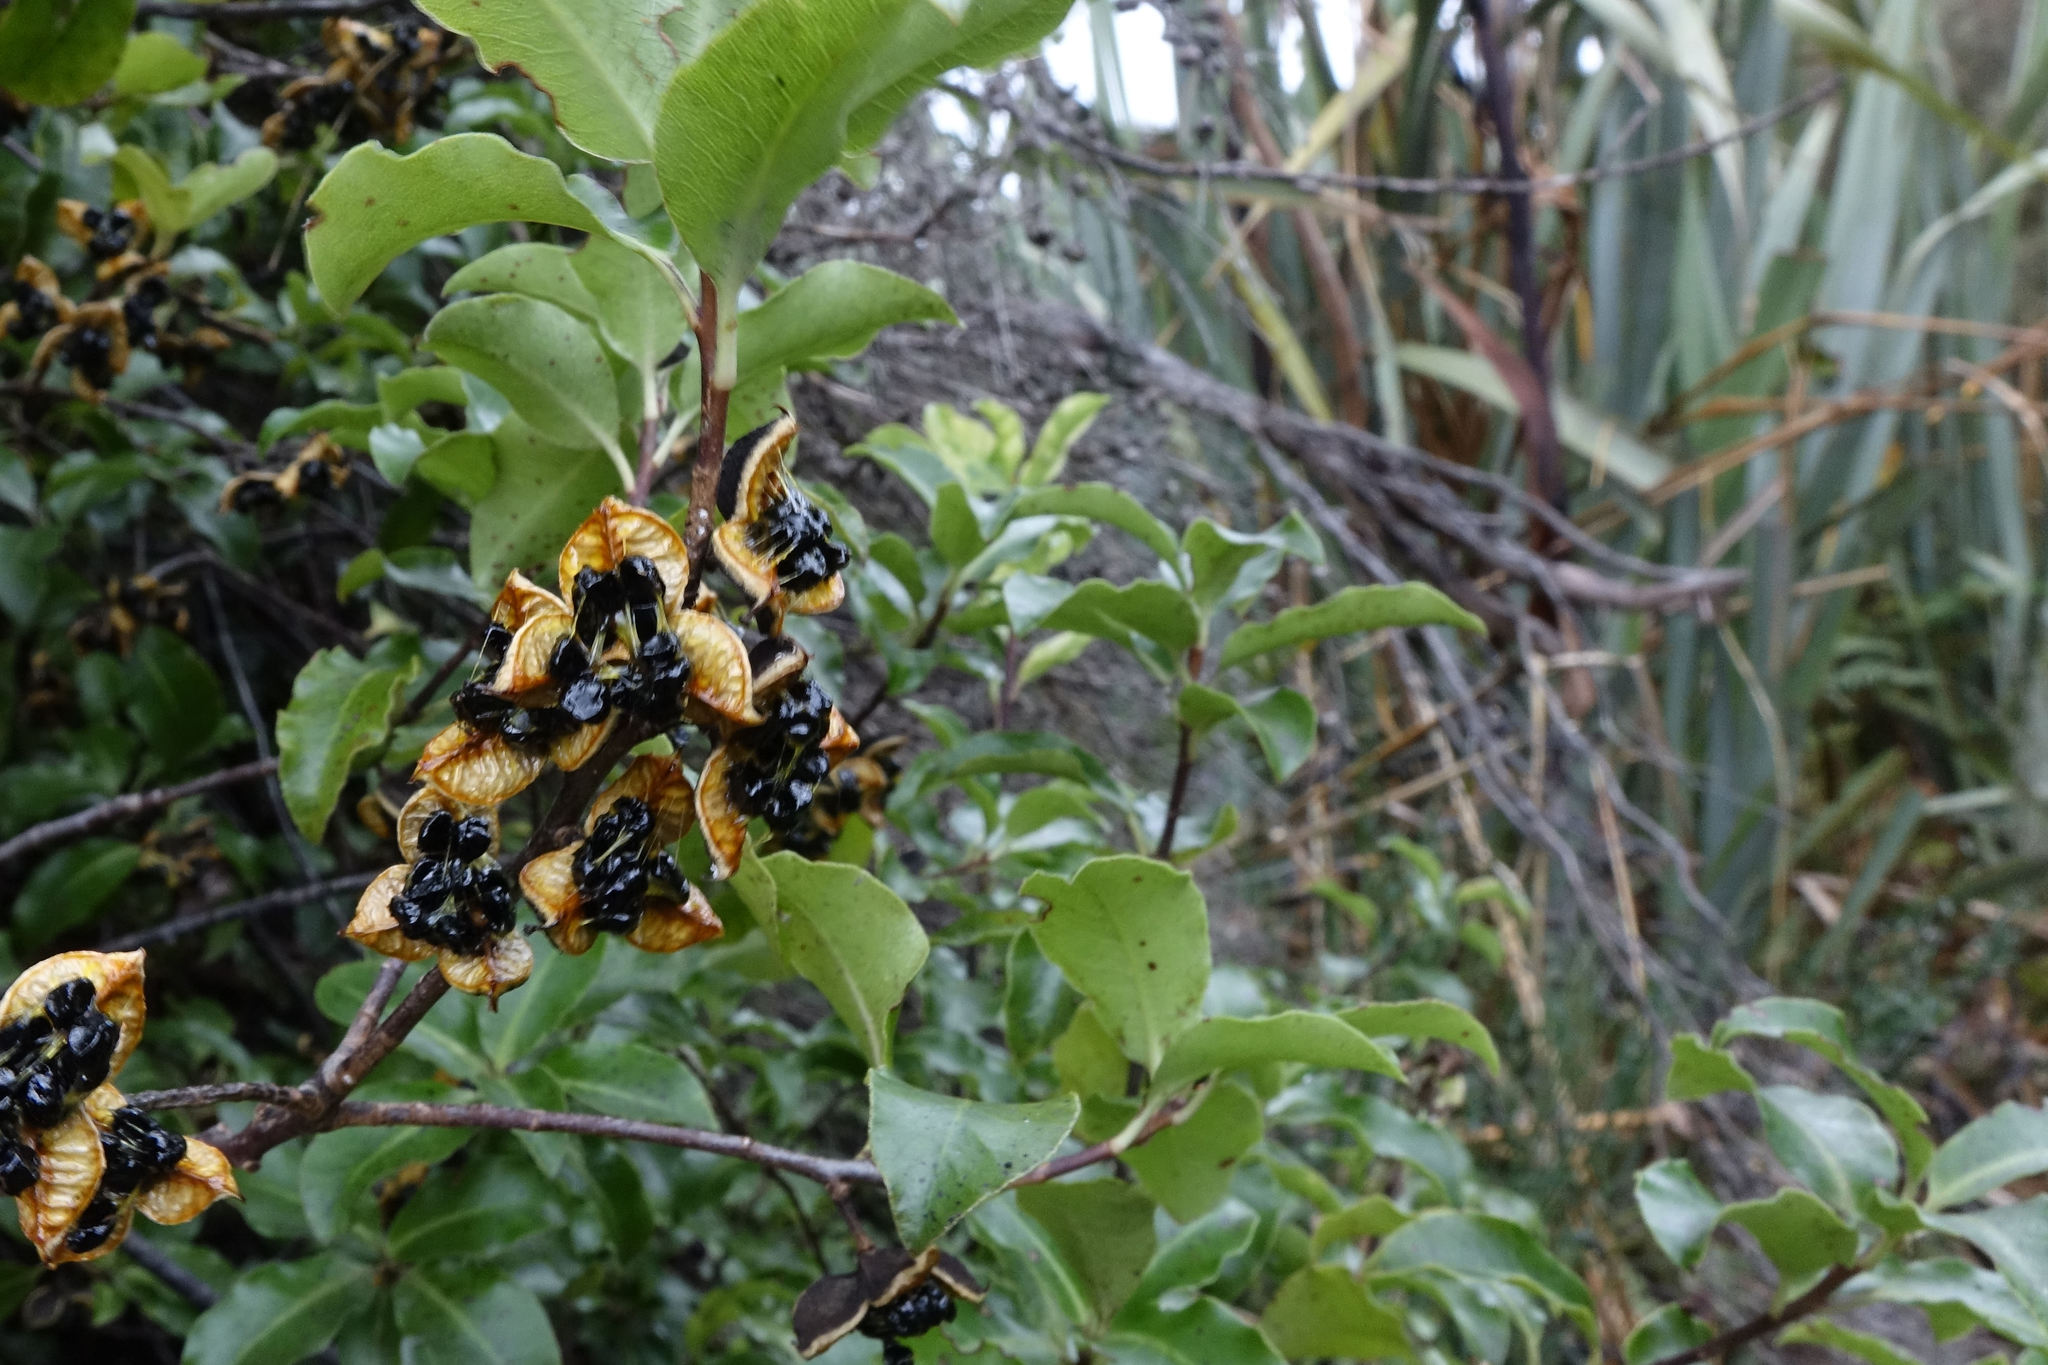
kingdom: Plantae
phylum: Tracheophyta
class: Magnoliopsida
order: Apiales
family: Pittosporaceae
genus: Pittosporum
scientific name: Pittosporum tenuifolium
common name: Kohuhu
